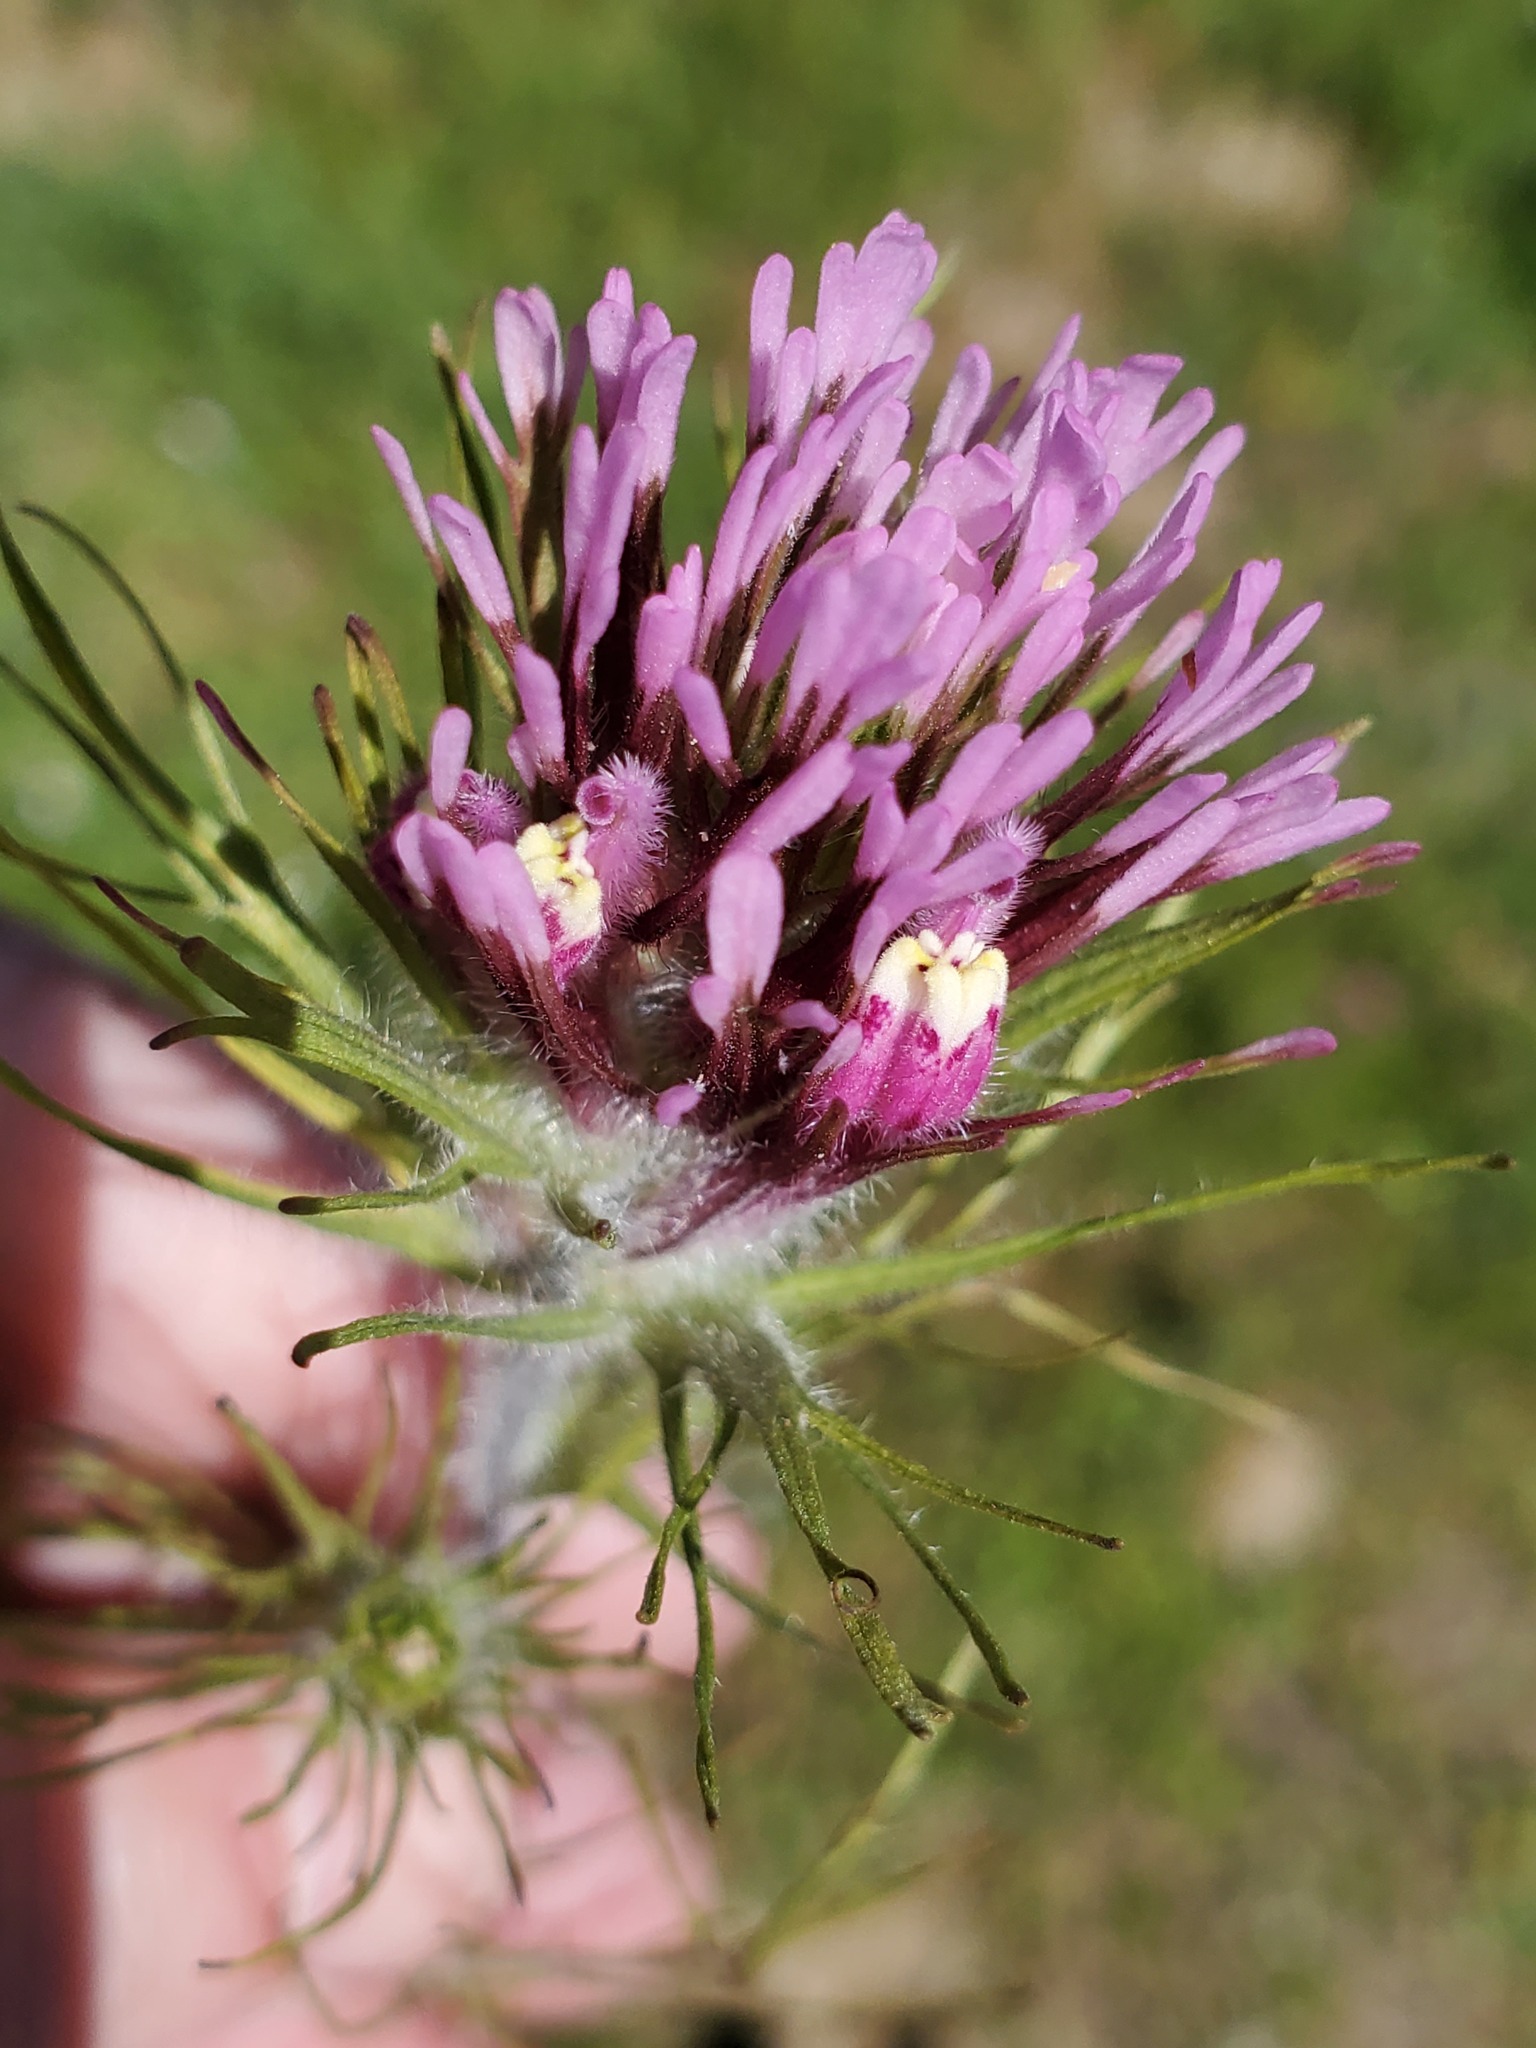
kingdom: Plantae
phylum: Tracheophyta
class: Magnoliopsida
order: Lamiales
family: Orobanchaceae
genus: Castilleja
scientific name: Castilleja exserta
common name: Purple owl-clover
